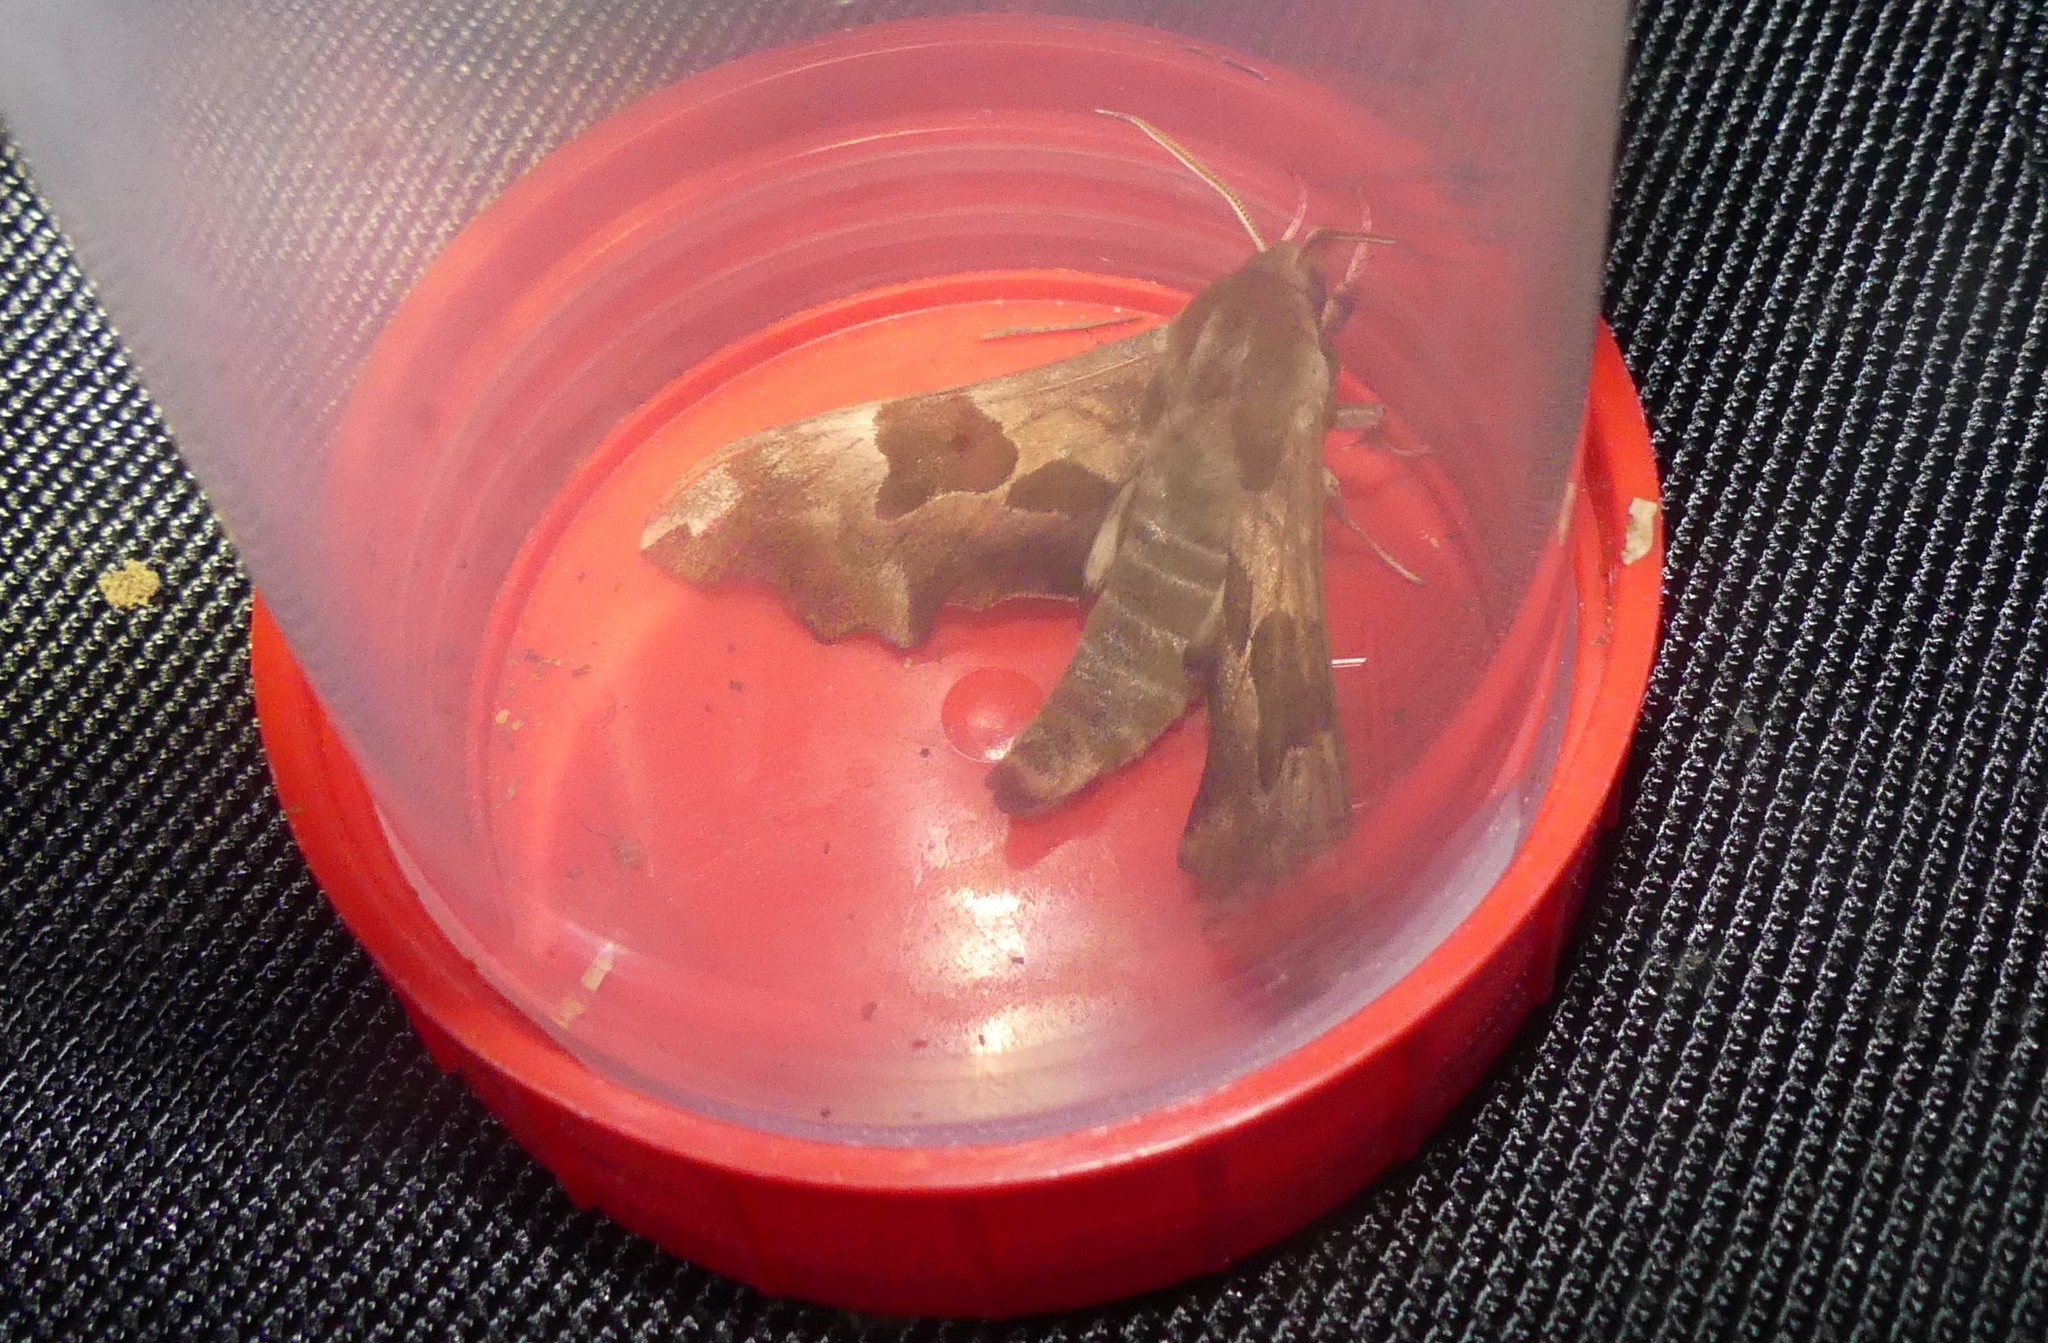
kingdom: Animalia
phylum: Arthropoda
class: Insecta
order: Lepidoptera
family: Sphingidae
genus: Mimas
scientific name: Mimas tiliae
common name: Lime hawk-moth
